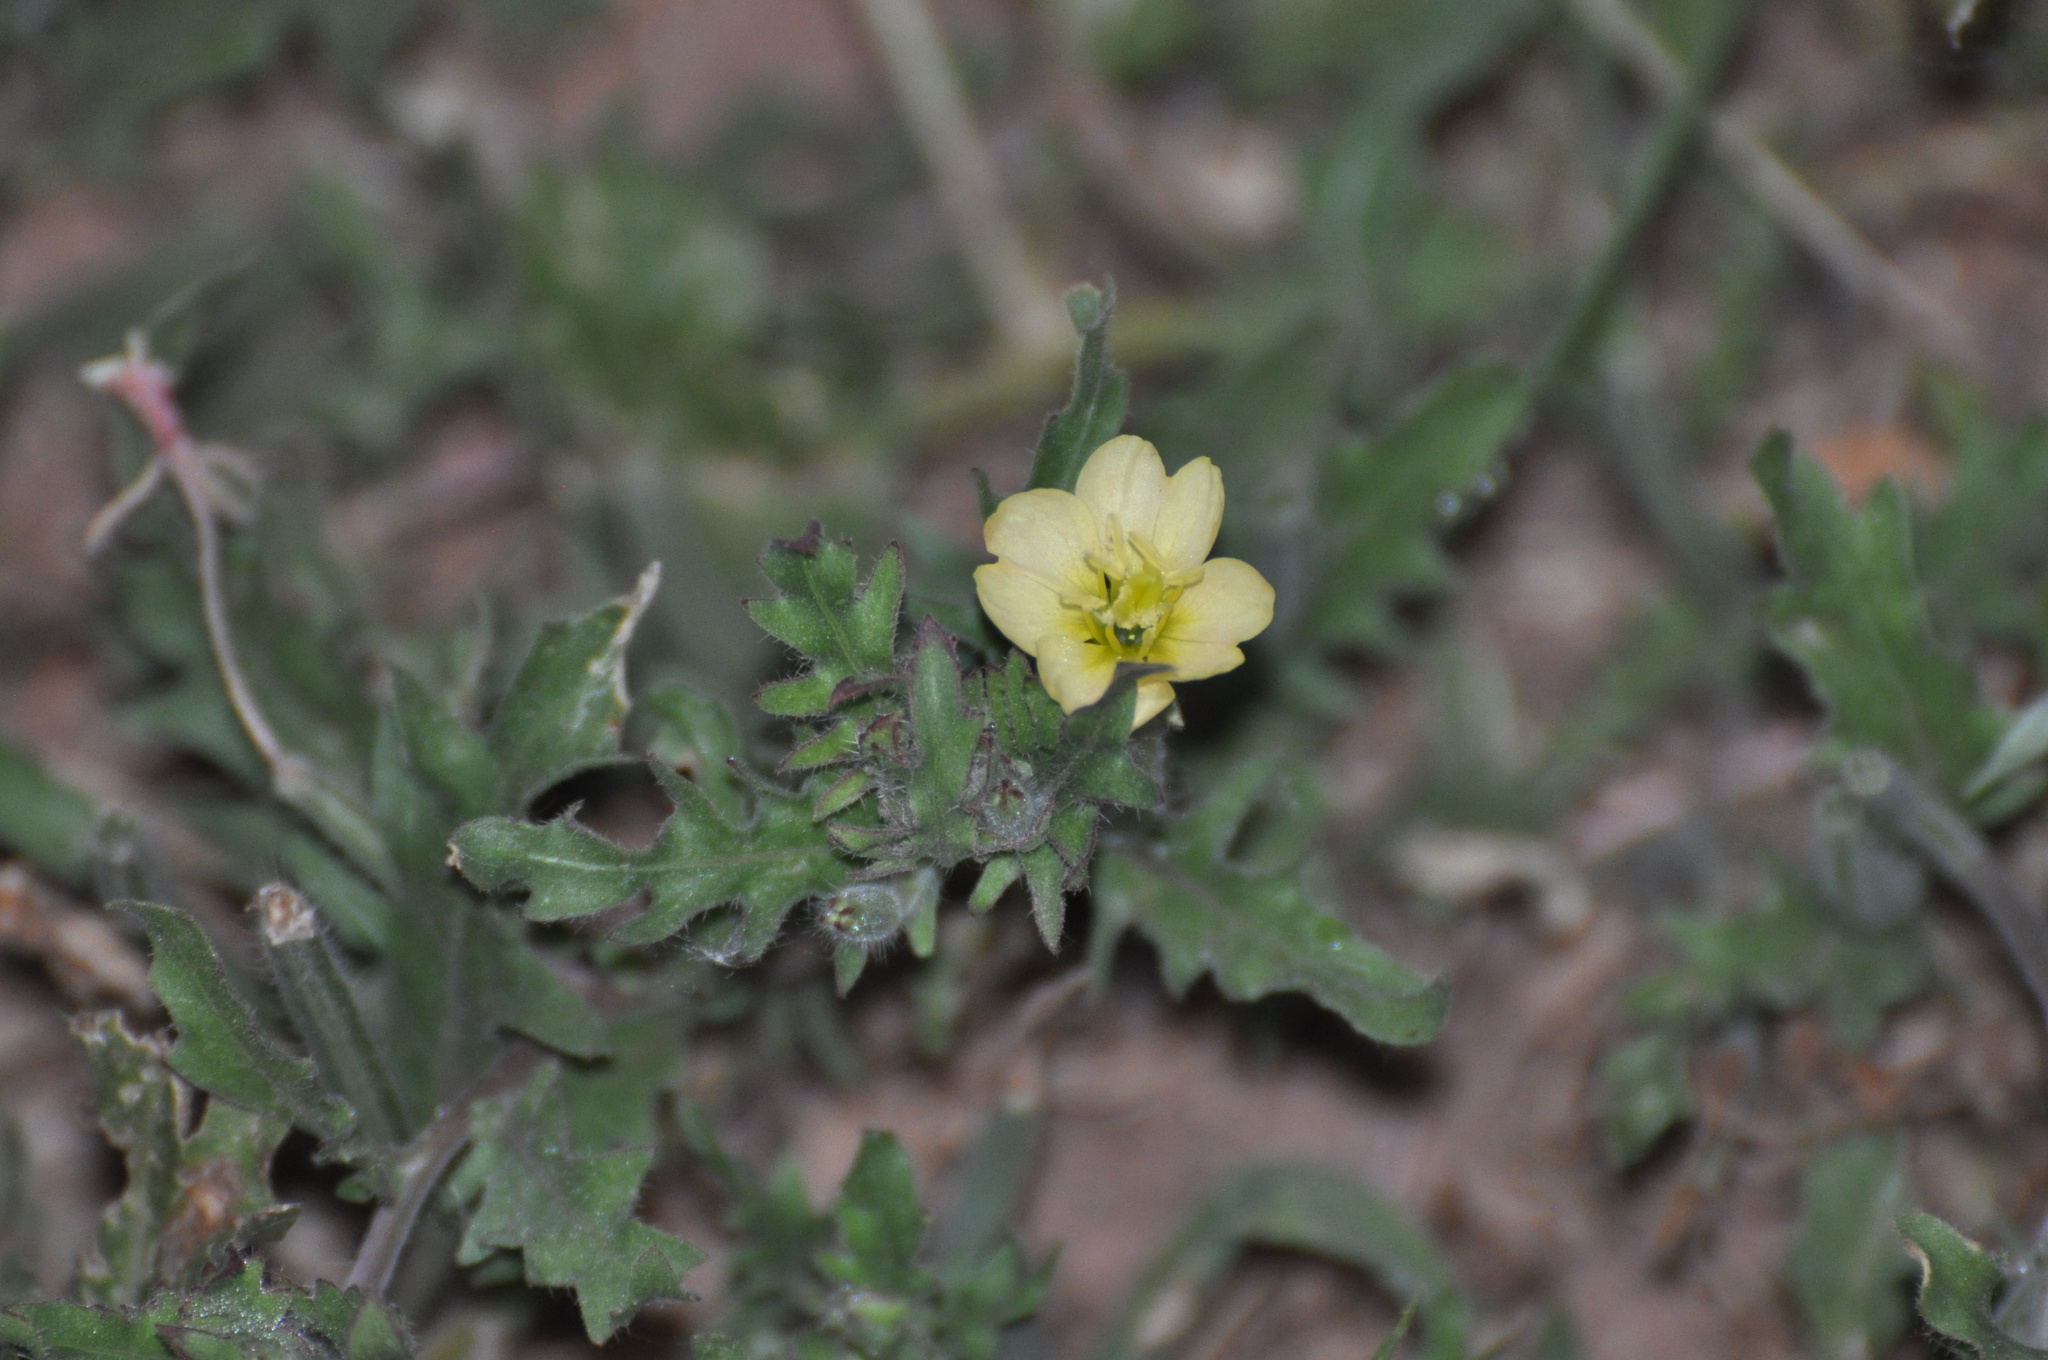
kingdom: Plantae
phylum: Tracheophyta
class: Magnoliopsida
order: Myrtales
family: Onagraceae
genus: Oenothera
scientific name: Oenothera laciniata
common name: Cut-leaved evening-primrose
